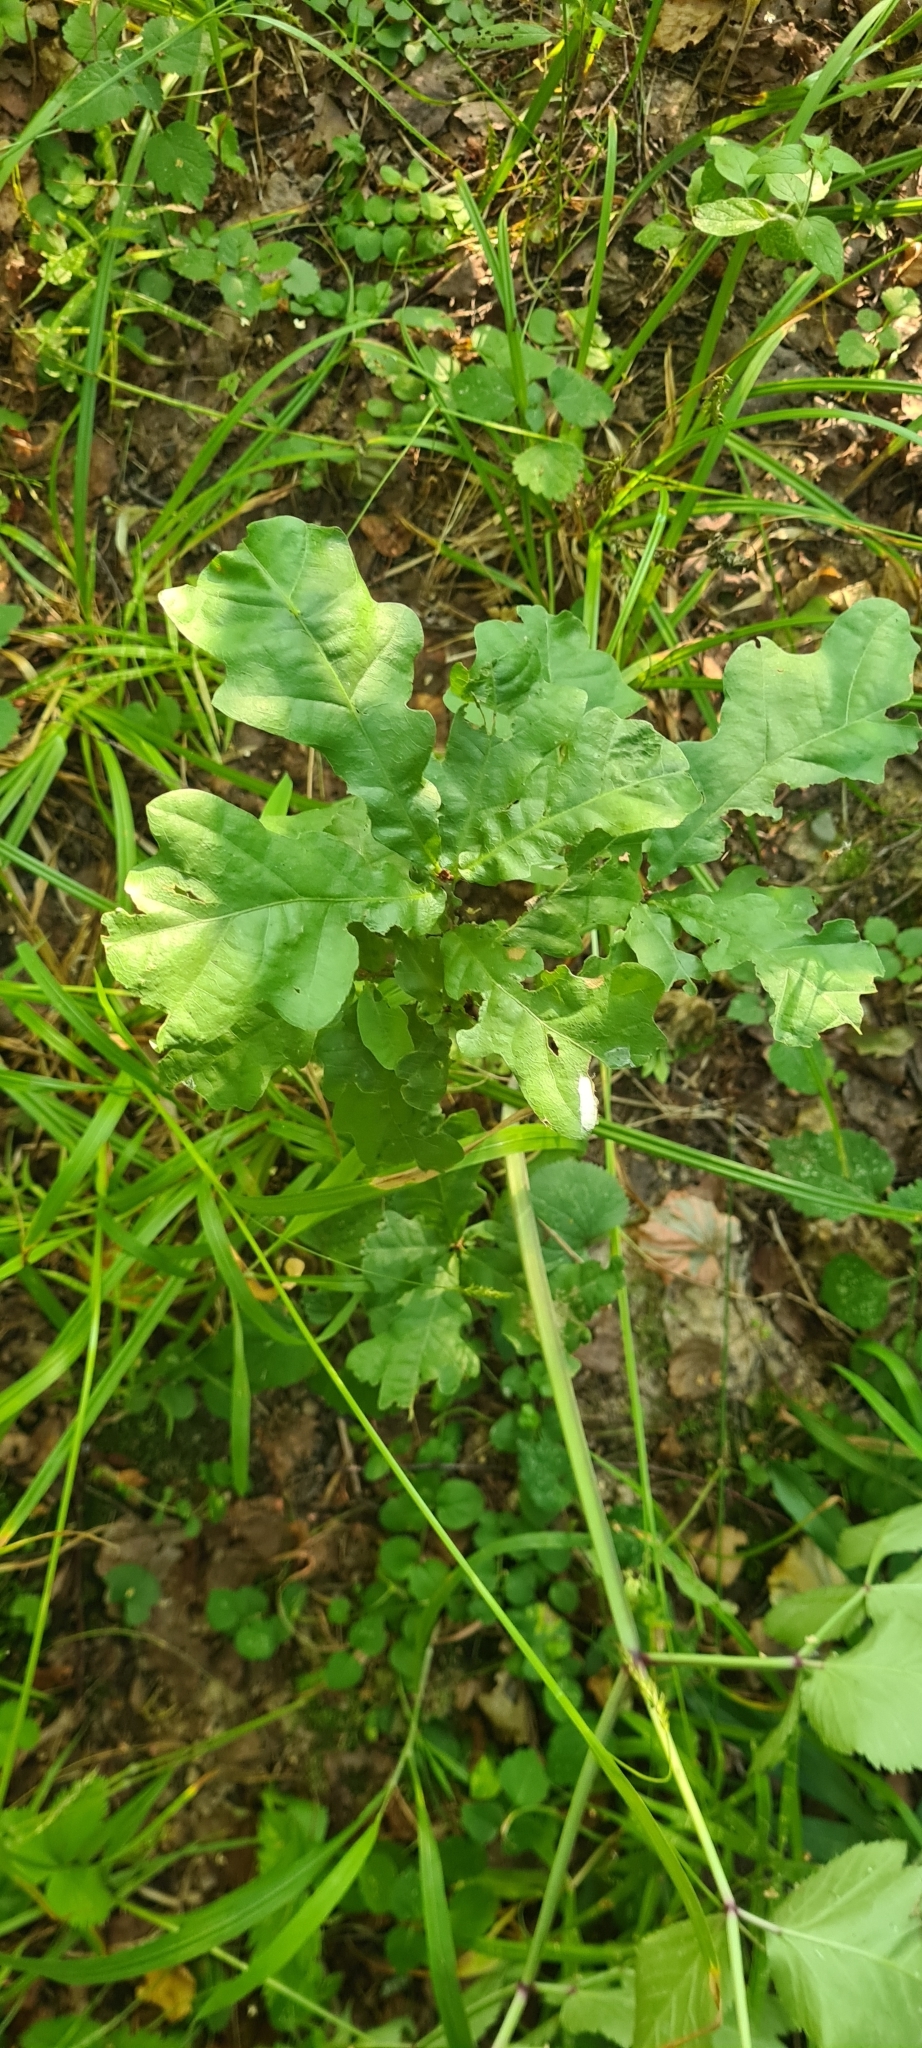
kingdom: Plantae
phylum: Tracheophyta
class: Magnoliopsida
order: Fagales
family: Fagaceae
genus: Quercus
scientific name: Quercus robur
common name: Pedunculate oak
